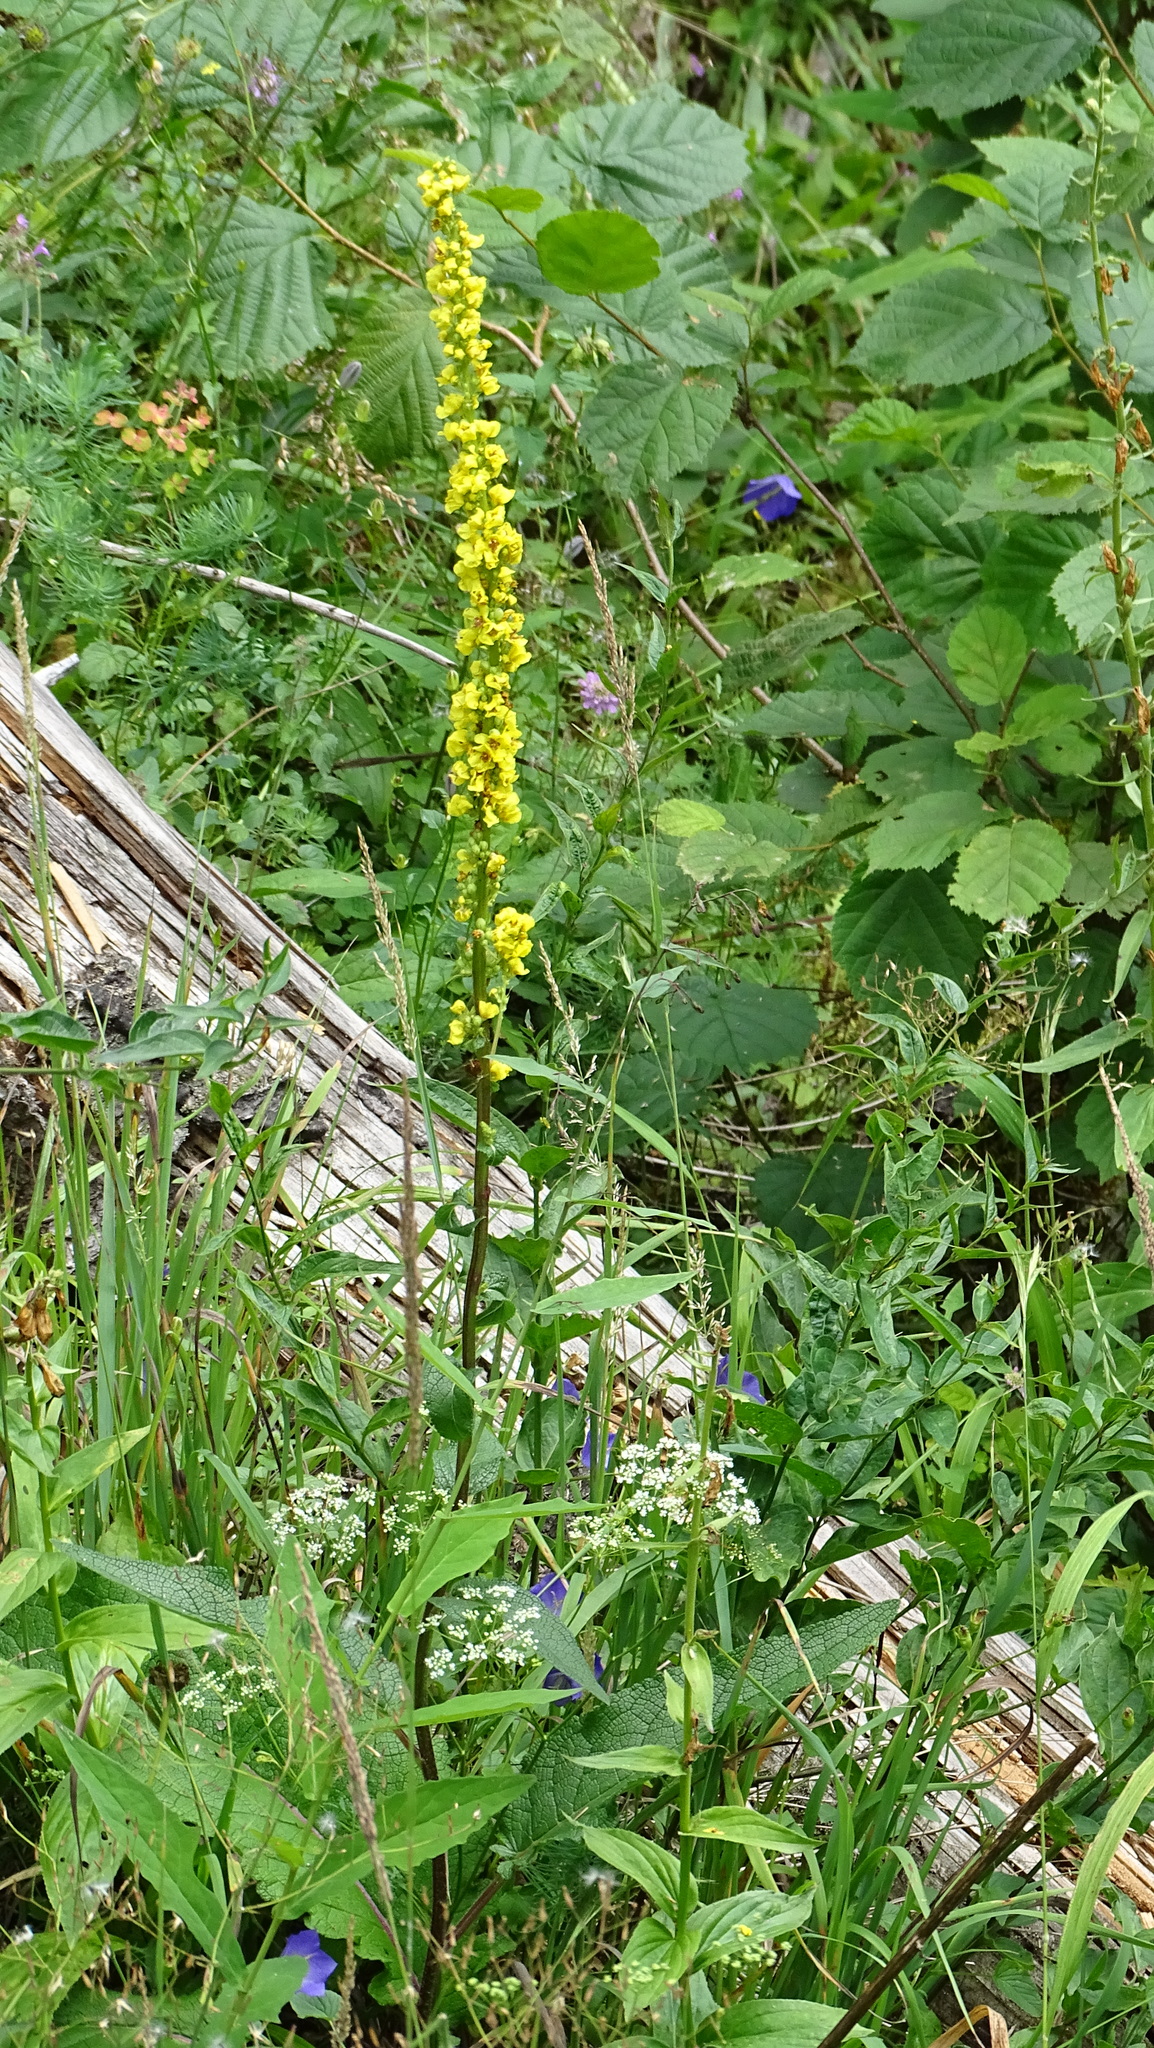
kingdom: Plantae
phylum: Tracheophyta
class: Magnoliopsida
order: Lamiales
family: Scrophulariaceae
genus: Verbascum
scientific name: Verbascum nigrum
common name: Dark mullein
